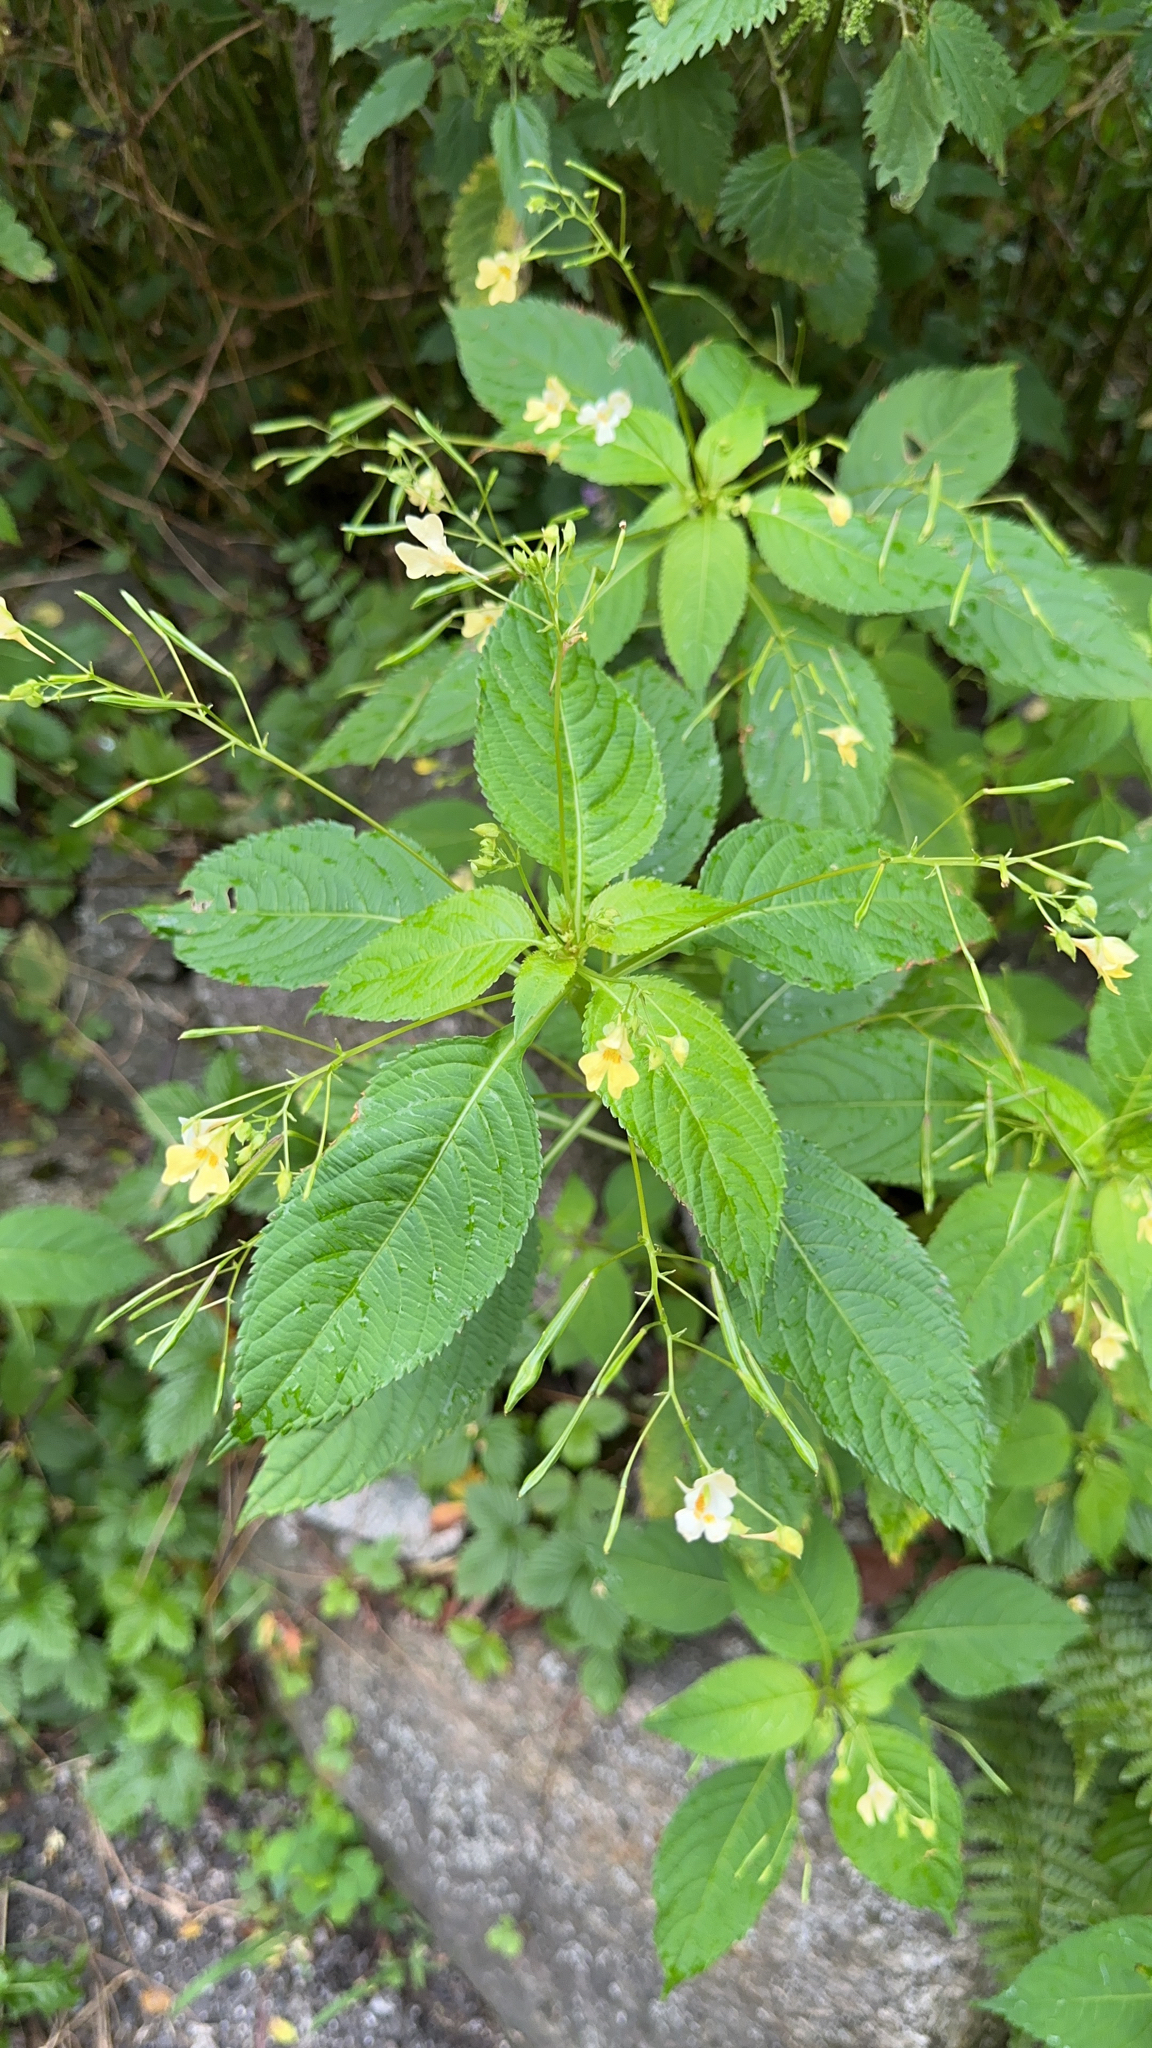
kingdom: Plantae
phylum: Tracheophyta
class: Magnoliopsida
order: Ericales
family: Balsaminaceae
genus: Impatiens
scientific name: Impatiens parviflora
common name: Small balsam
